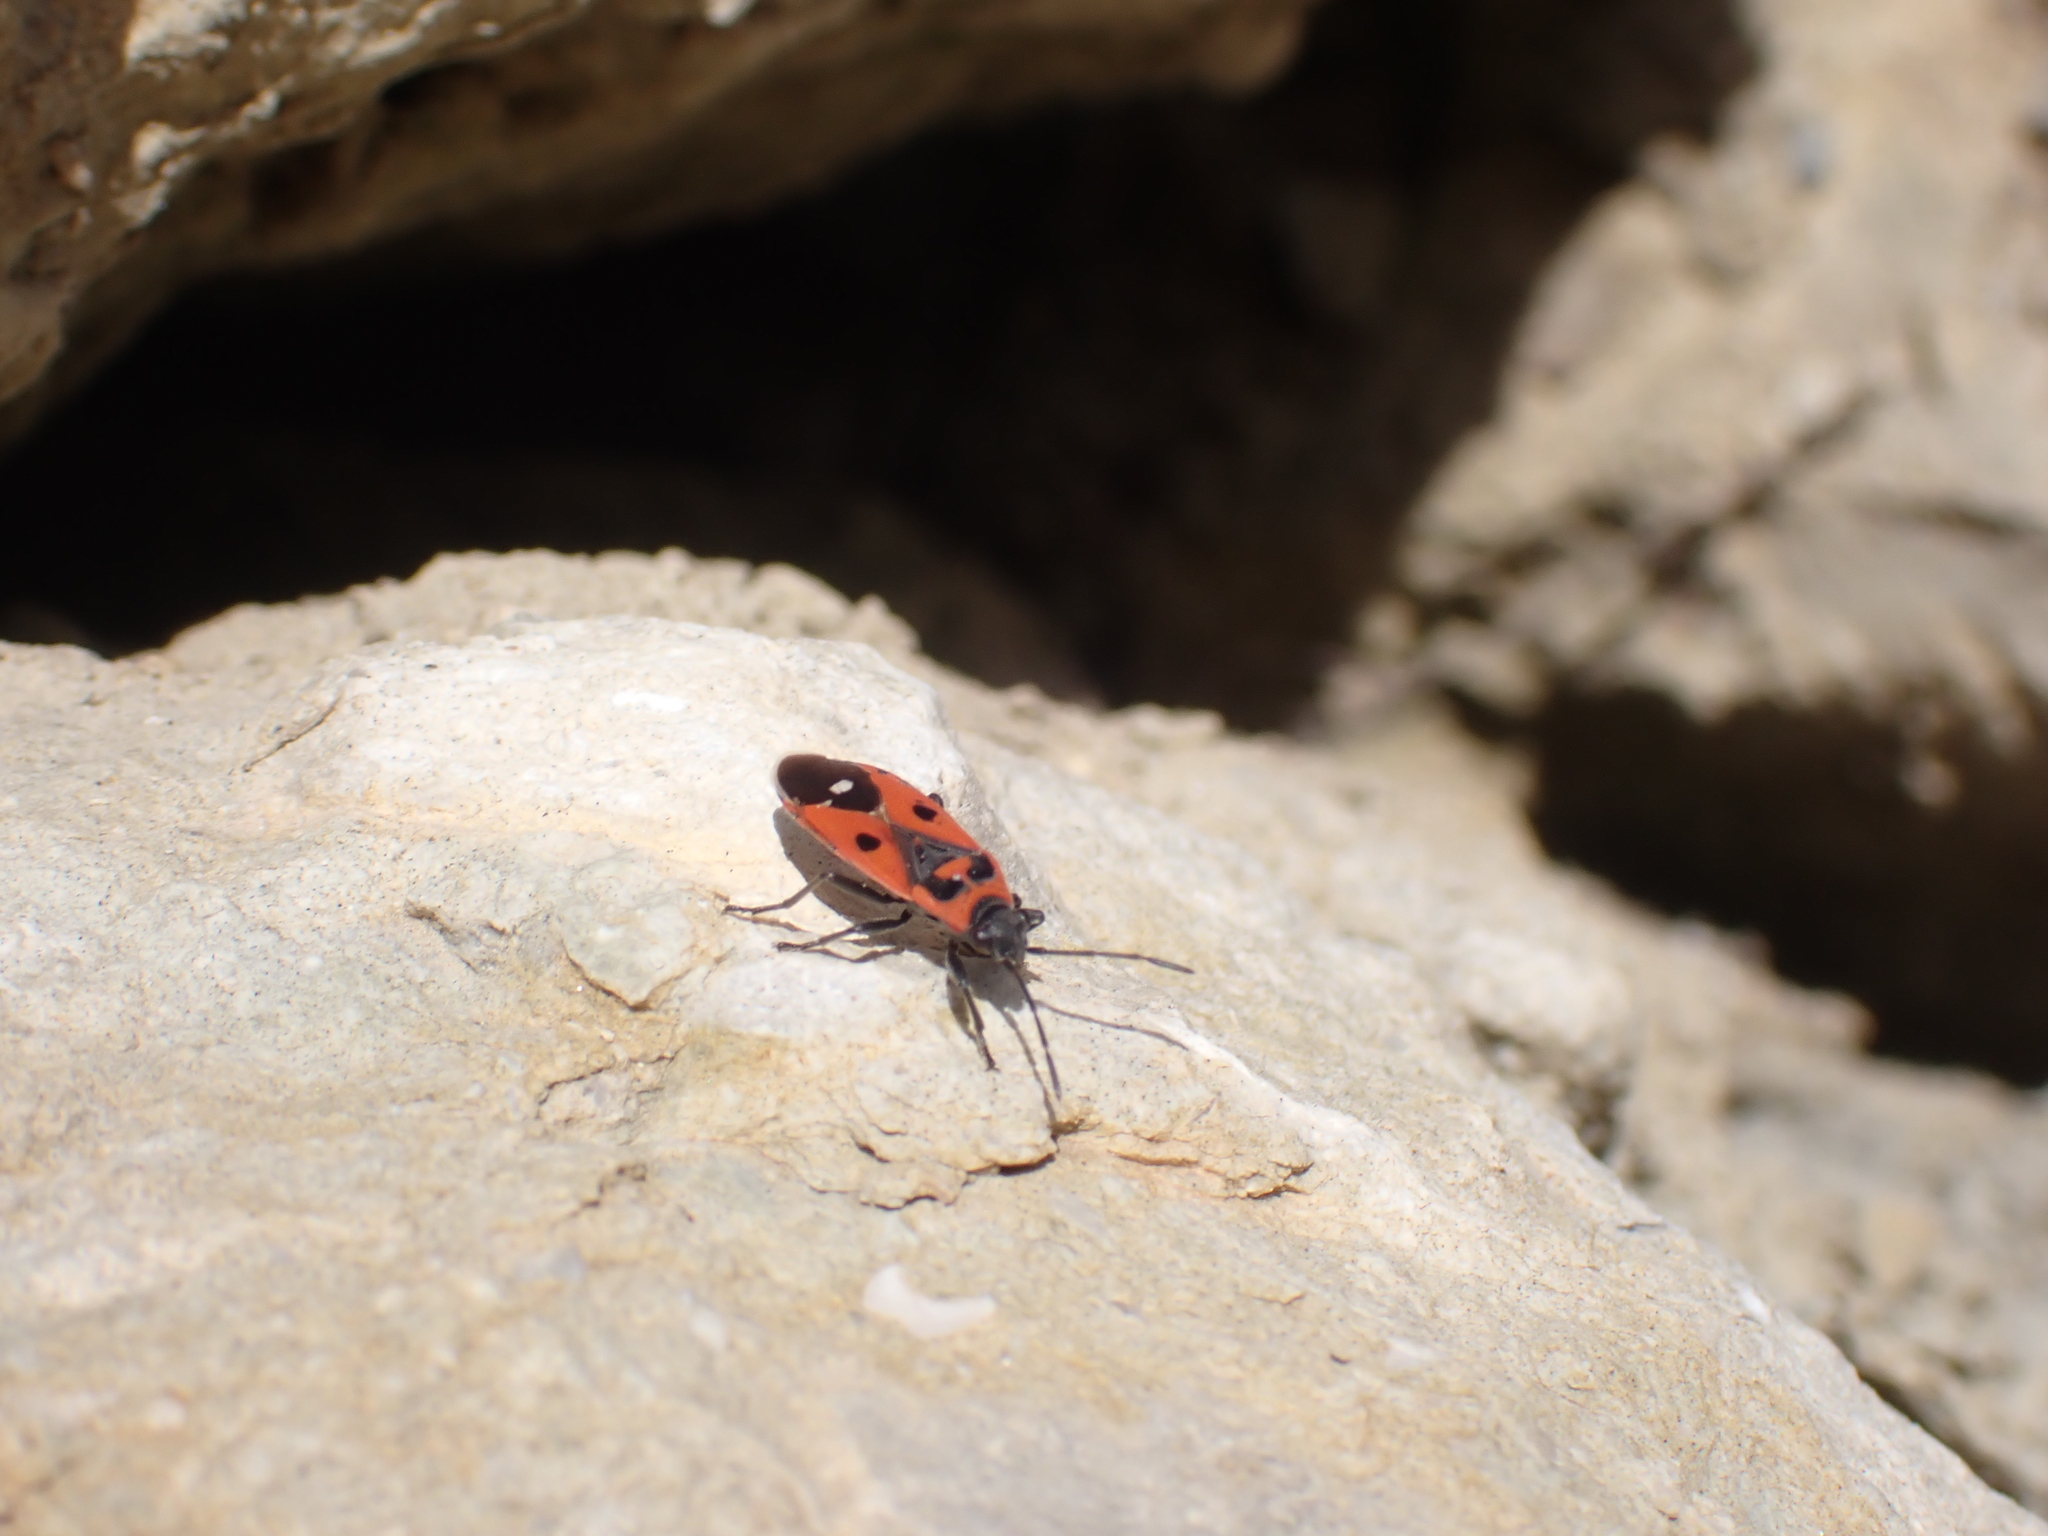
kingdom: Animalia
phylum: Arthropoda
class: Insecta
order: Hemiptera
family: Lygaeidae
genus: Melanocoryphus
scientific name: Melanocoryphus albomaculatus
